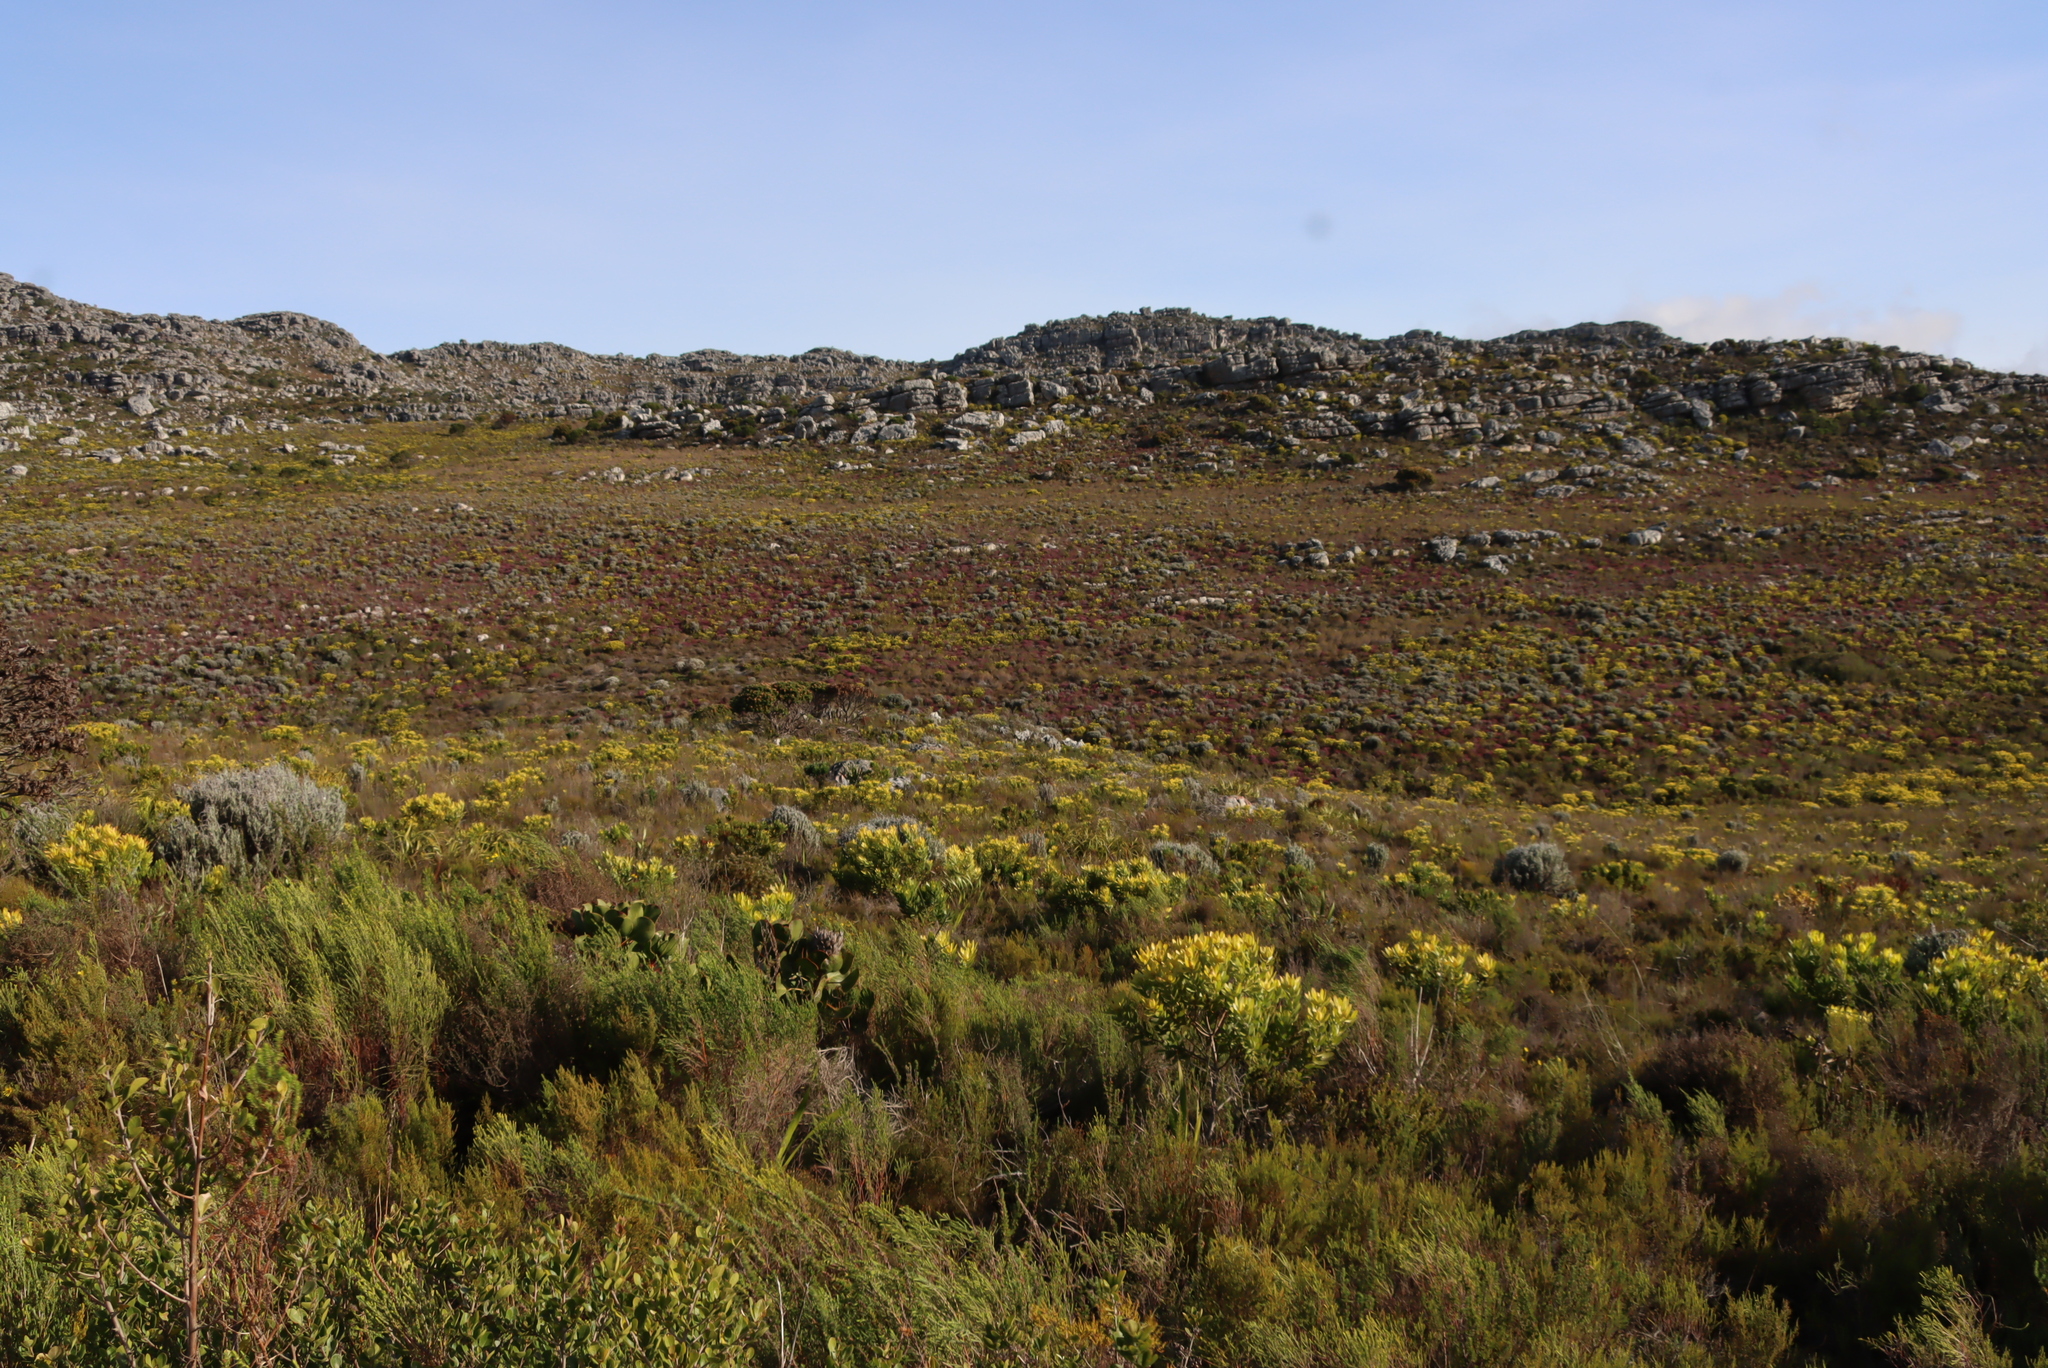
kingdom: Plantae
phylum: Tracheophyta
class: Magnoliopsida
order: Proteales
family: Proteaceae
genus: Leucadendron
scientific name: Leucadendron laureolum
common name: Golden sunshinebush
